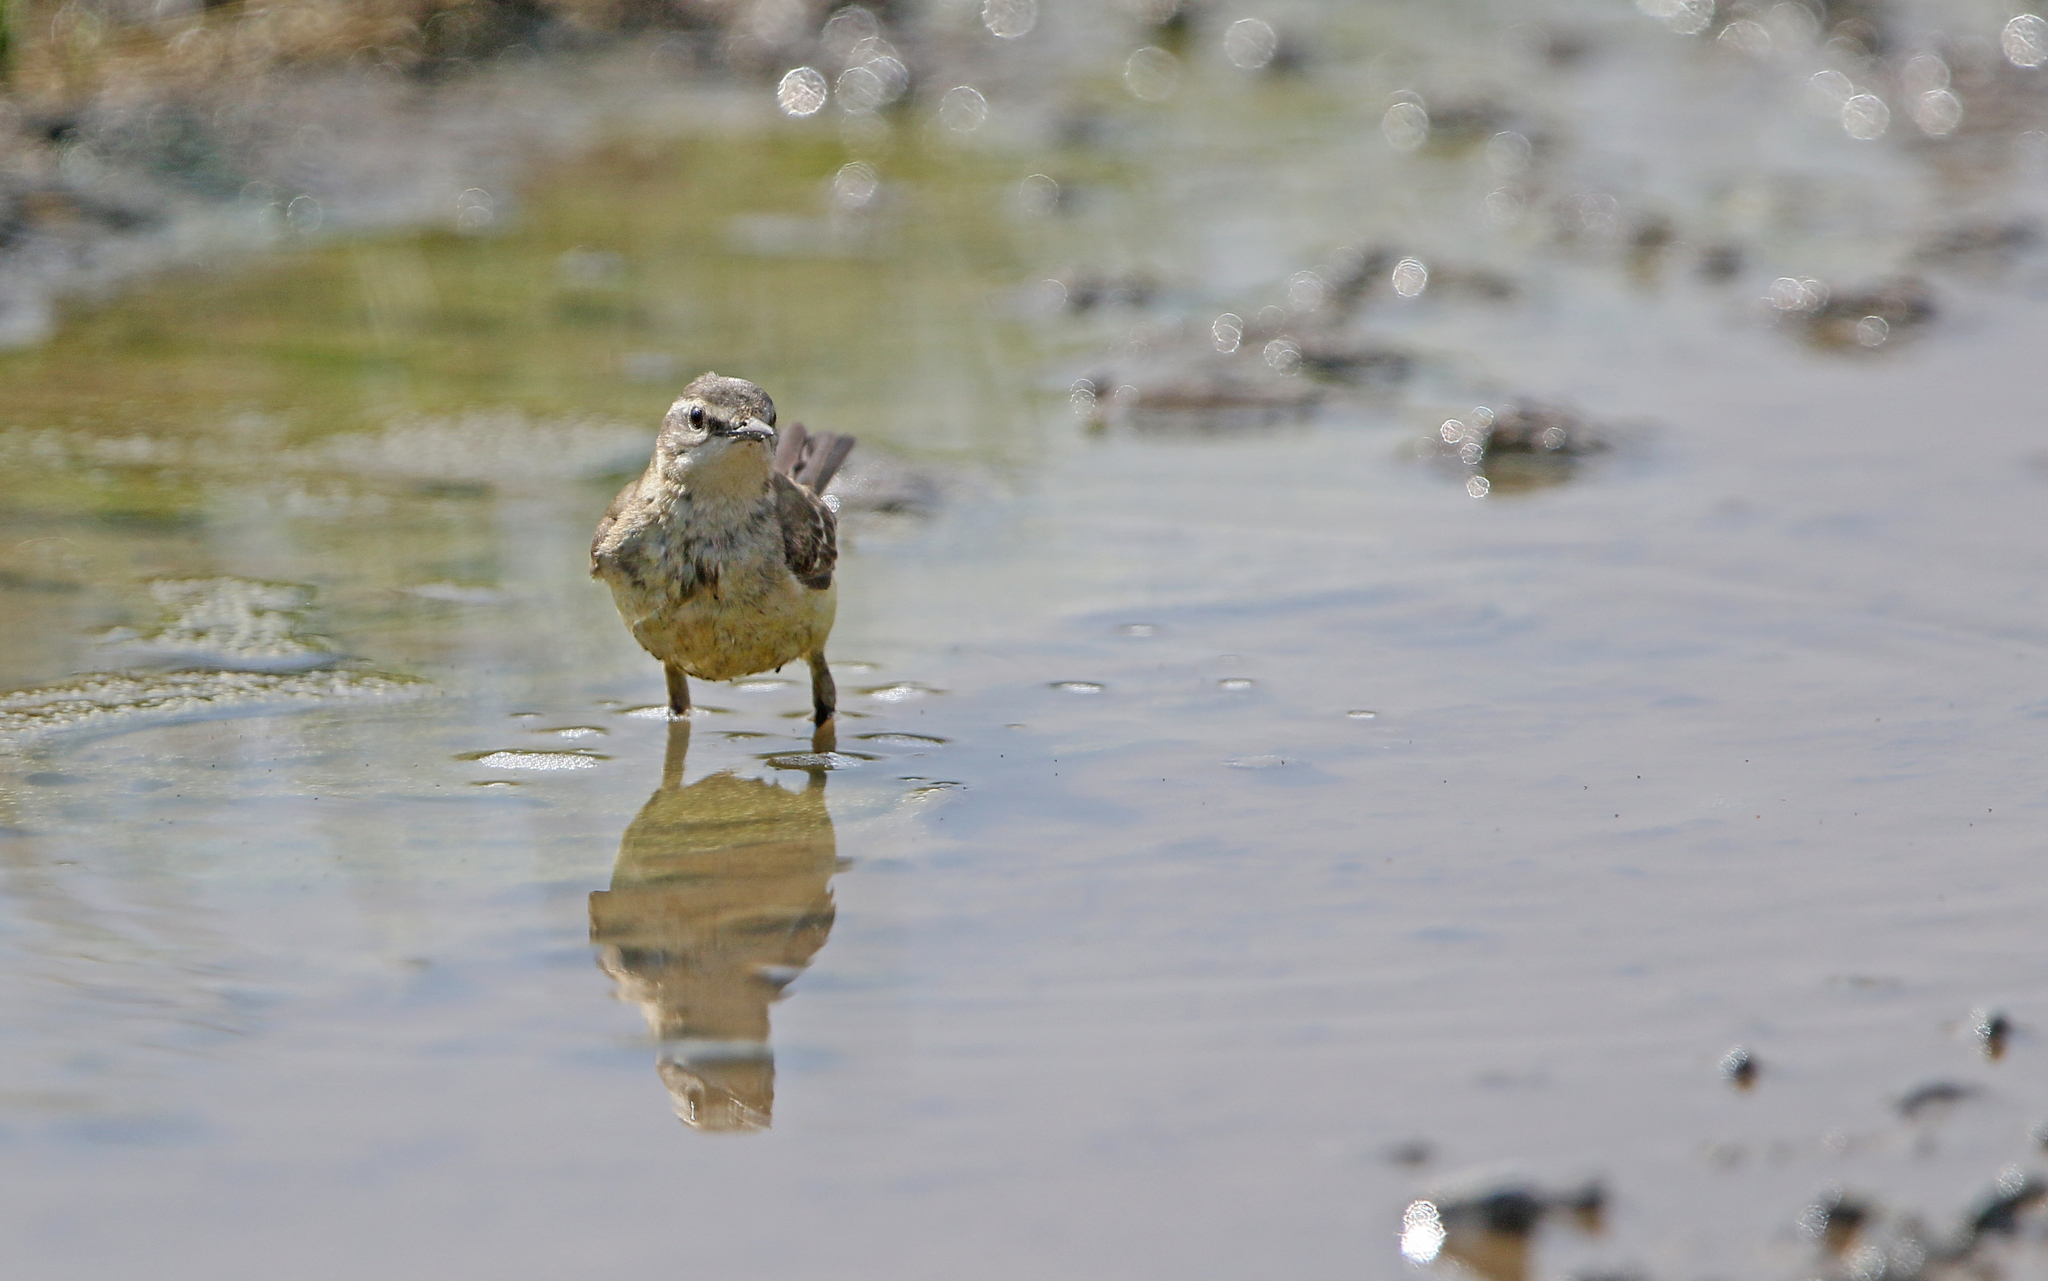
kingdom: Animalia
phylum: Chordata
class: Aves
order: Passeriformes
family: Motacillidae
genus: Motacilla
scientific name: Motacilla flava
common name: Western yellow wagtail
